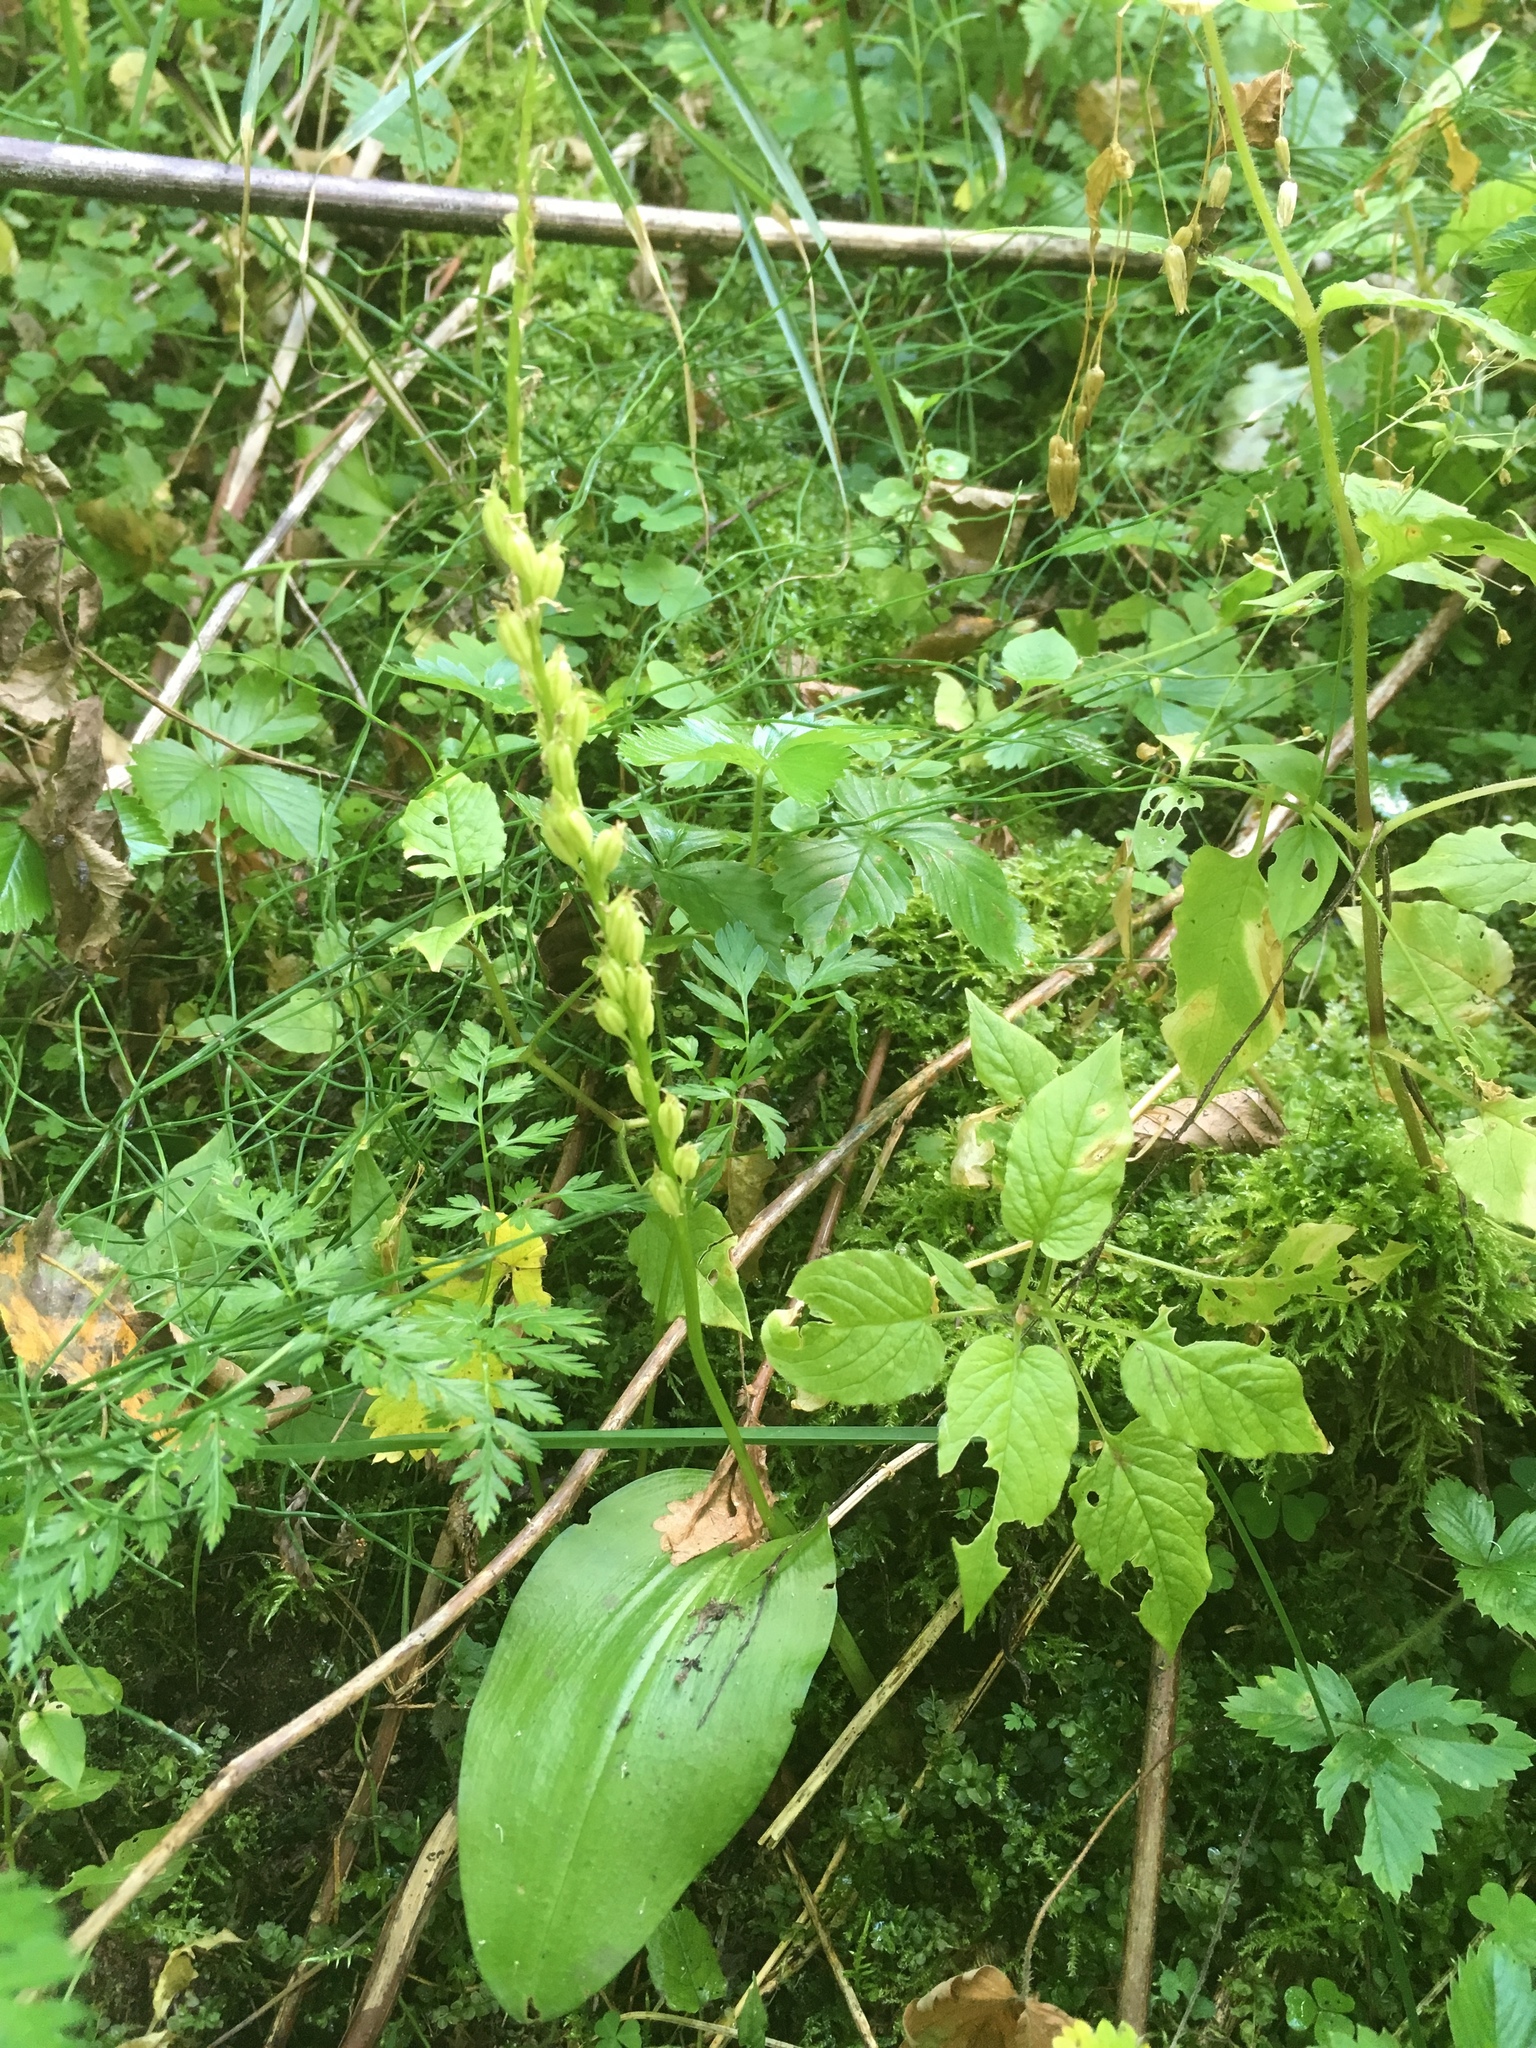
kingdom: Plantae
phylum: Tracheophyta
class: Liliopsida
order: Asparagales
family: Orchidaceae
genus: Malaxis
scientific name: Malaxis monophyllos
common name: White adder's-mouth
